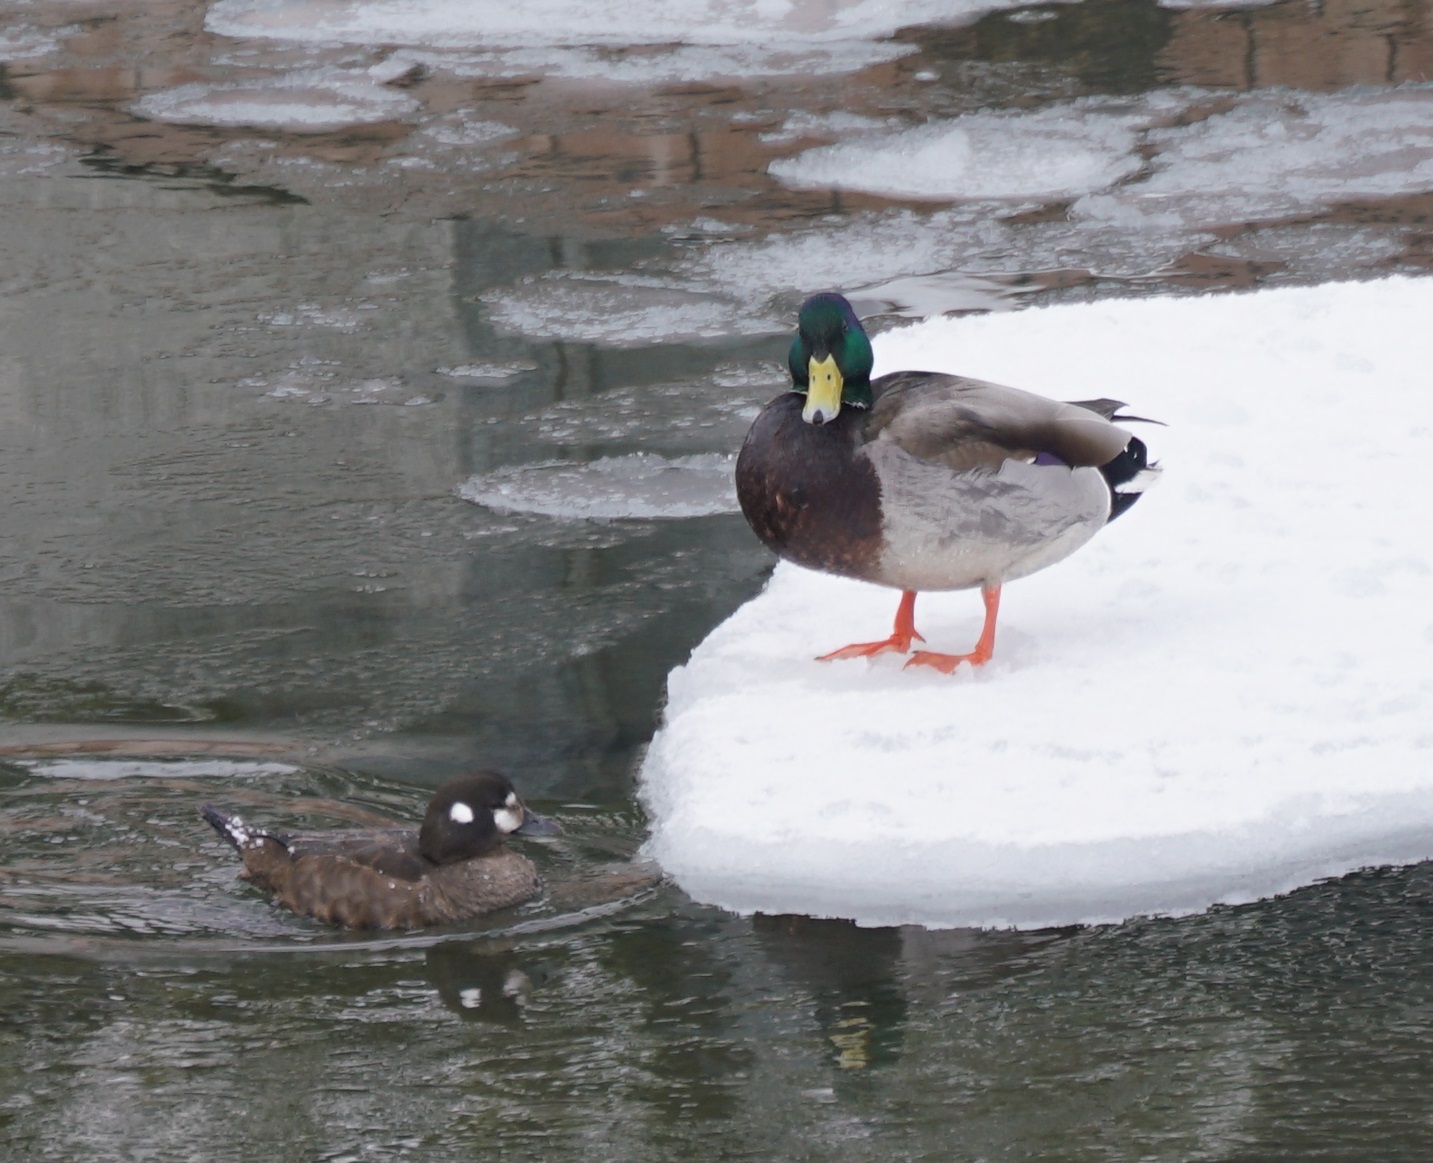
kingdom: Animalia
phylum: Chordata
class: Aves
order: Anseriformes
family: Anatidae
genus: Anas
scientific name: Anas platyrhynchos
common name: Mallard
